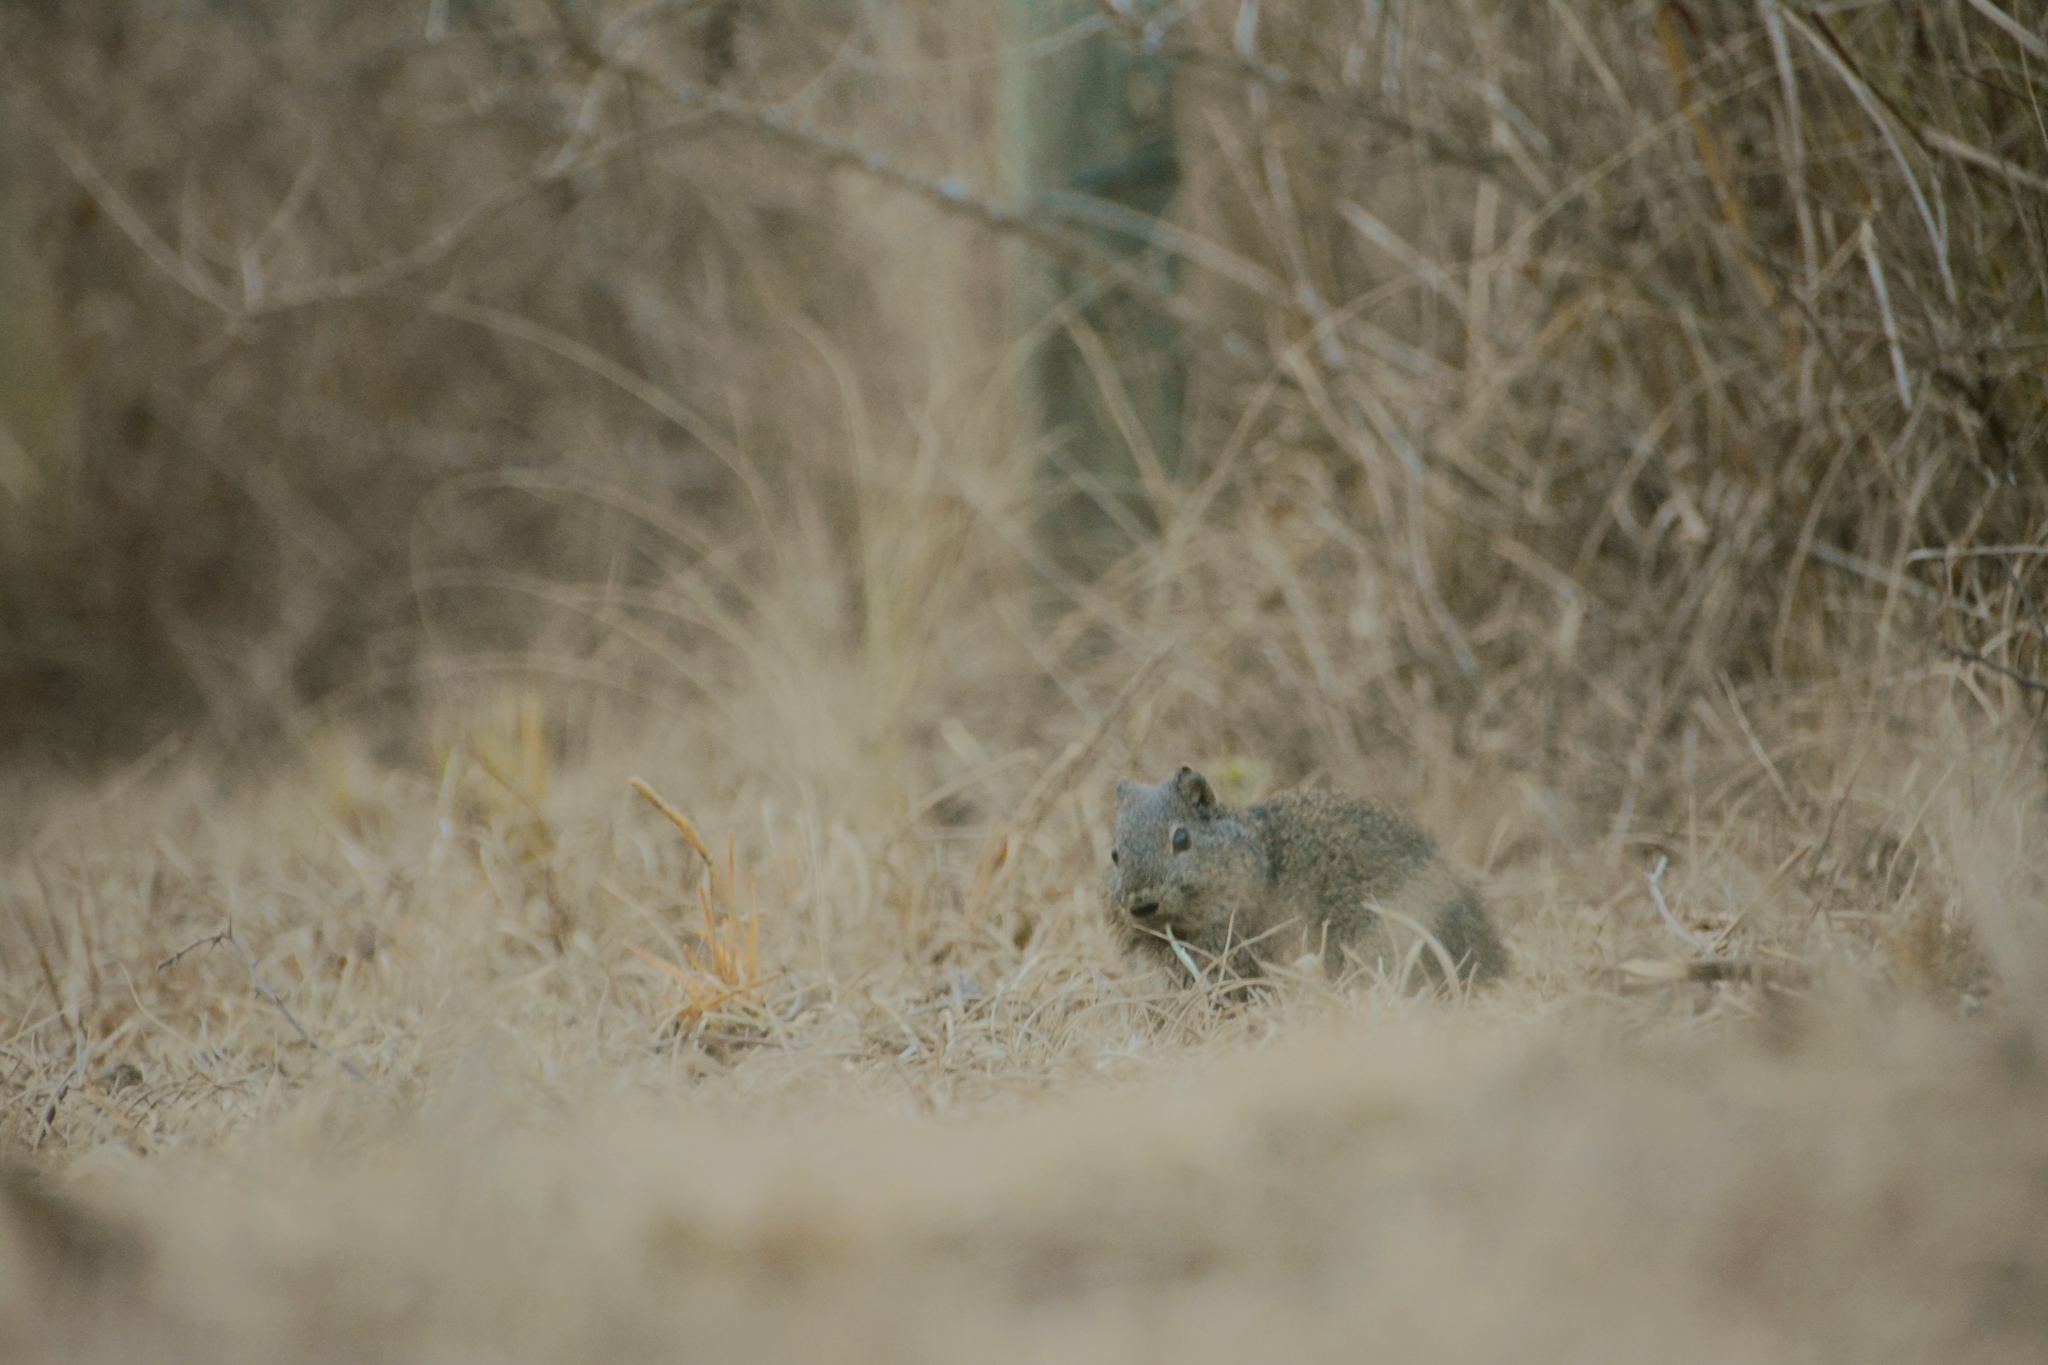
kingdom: Animalia
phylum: Chordata
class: Mammalia
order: Rodentia
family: Caviidae
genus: Cavia
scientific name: Cavia aperea
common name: Brazilian guinea pig
